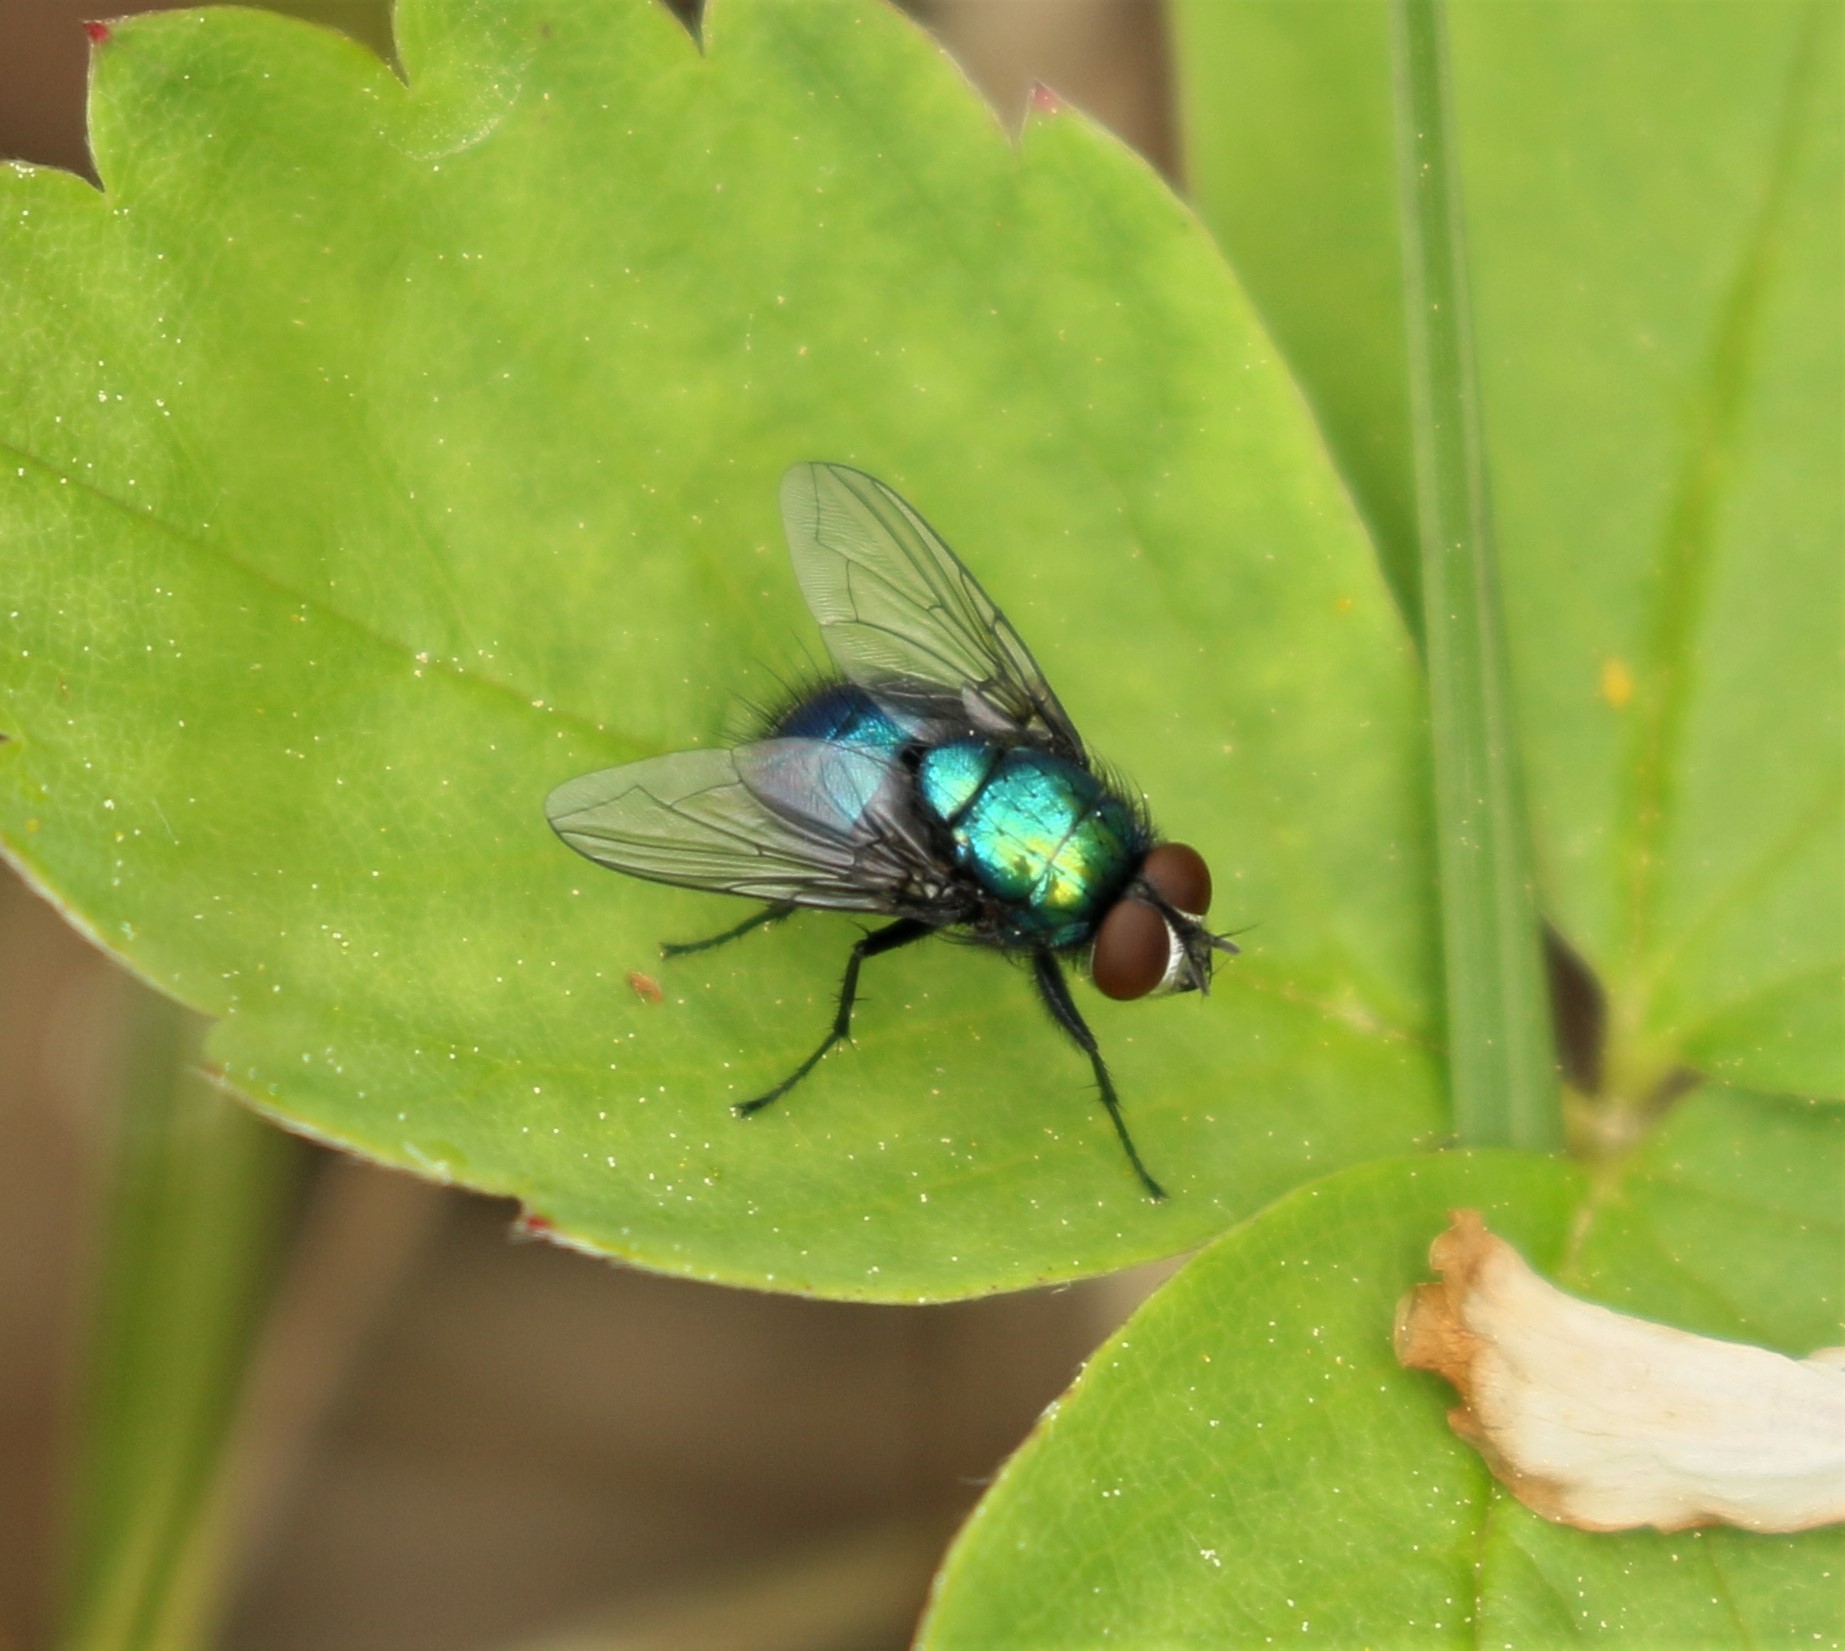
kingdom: Animalia
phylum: Arthropoda
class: Insecta
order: Diptera
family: Calliphoridae
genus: Lucilia
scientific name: Lucilia silvarum
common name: Marsh greenbottle
